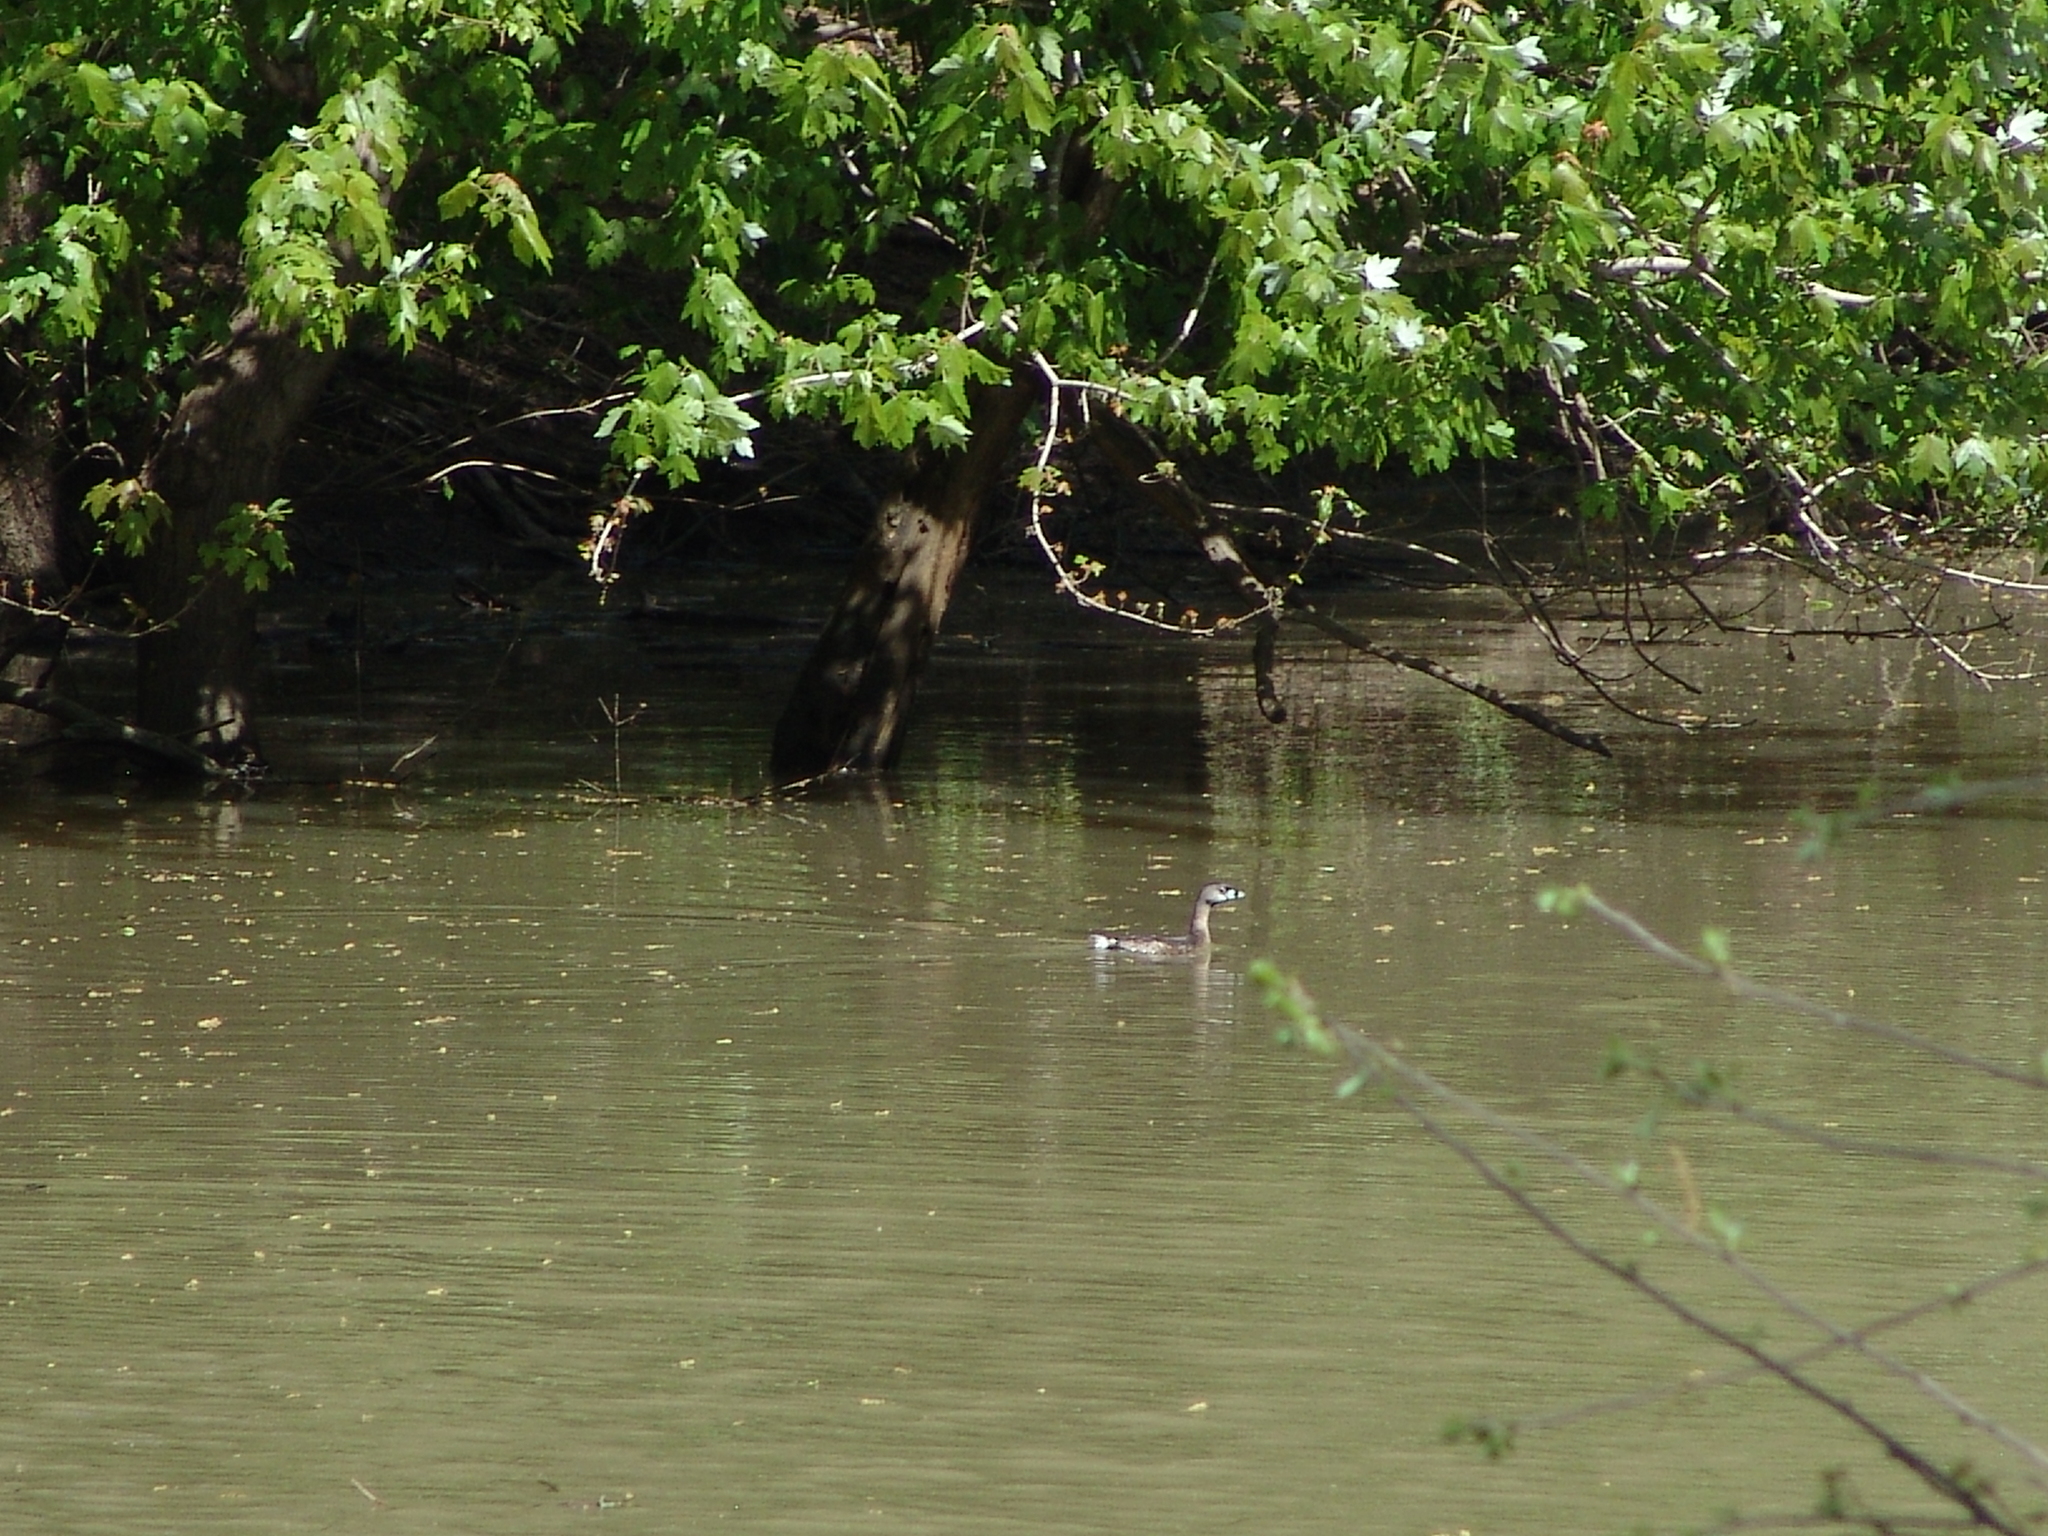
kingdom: Animalia
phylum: Chordata
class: Aves
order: Podicipediformes
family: Podicipedidae
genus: Podilymbus
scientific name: Podilymbus podiceps
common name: Pied-billed grebe
